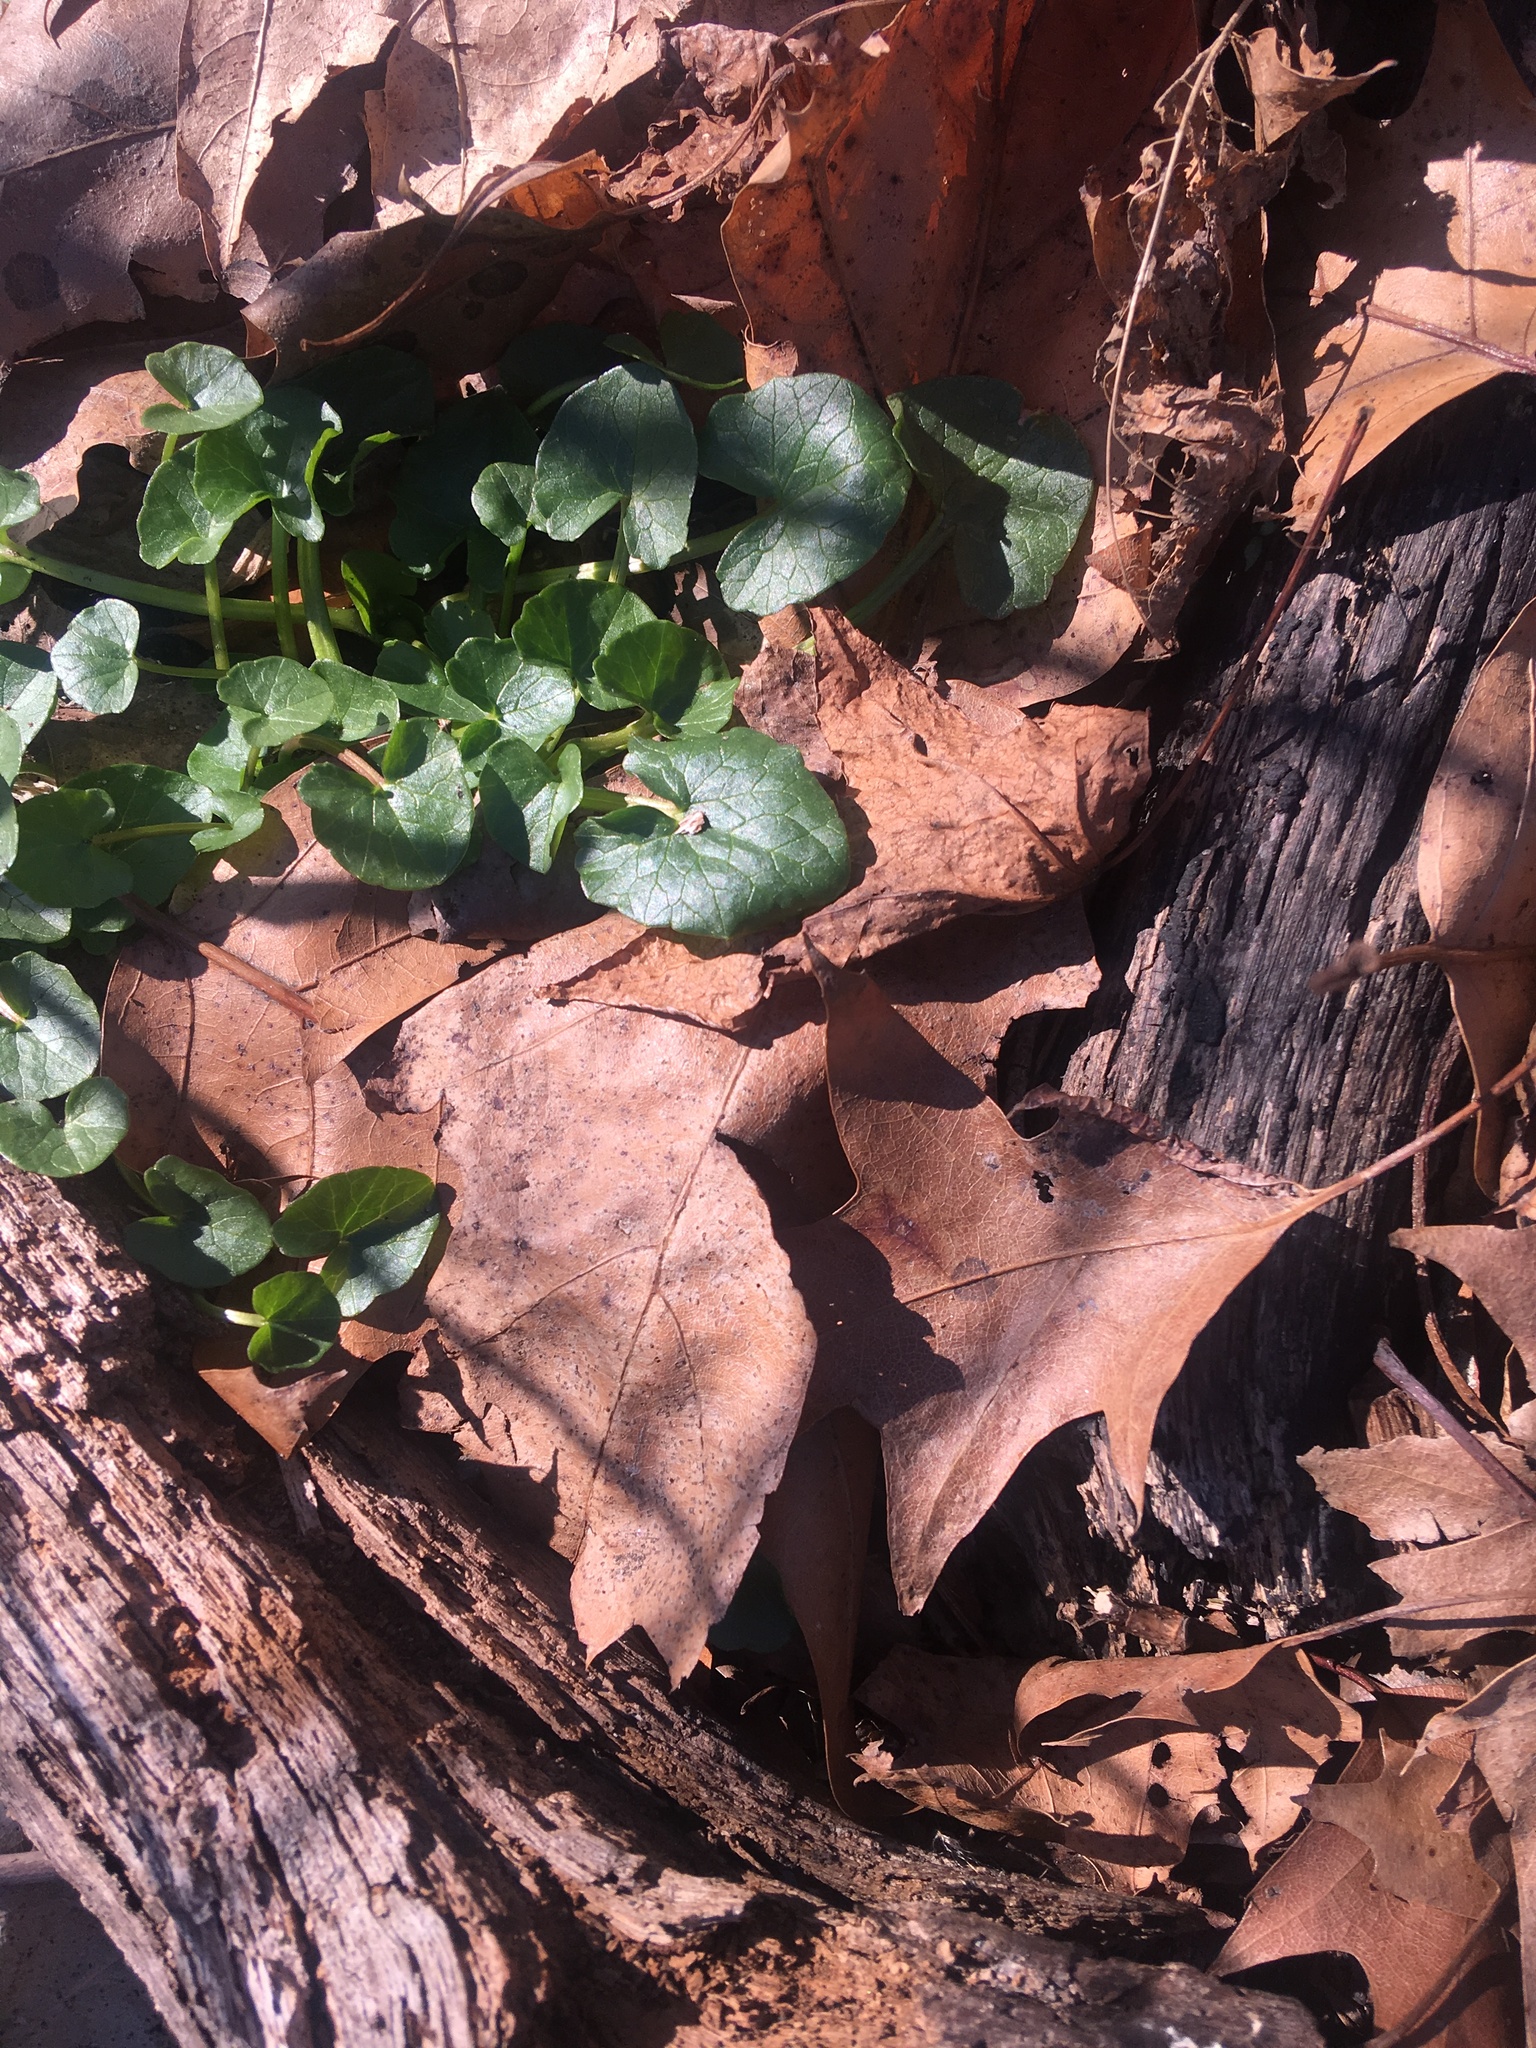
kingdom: Plantae
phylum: Tracheophyta
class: Magnoliopsida
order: Ranunculales
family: Ranunculaceae
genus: Ficaria
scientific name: Ficaria verna
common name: Lesser celandine
